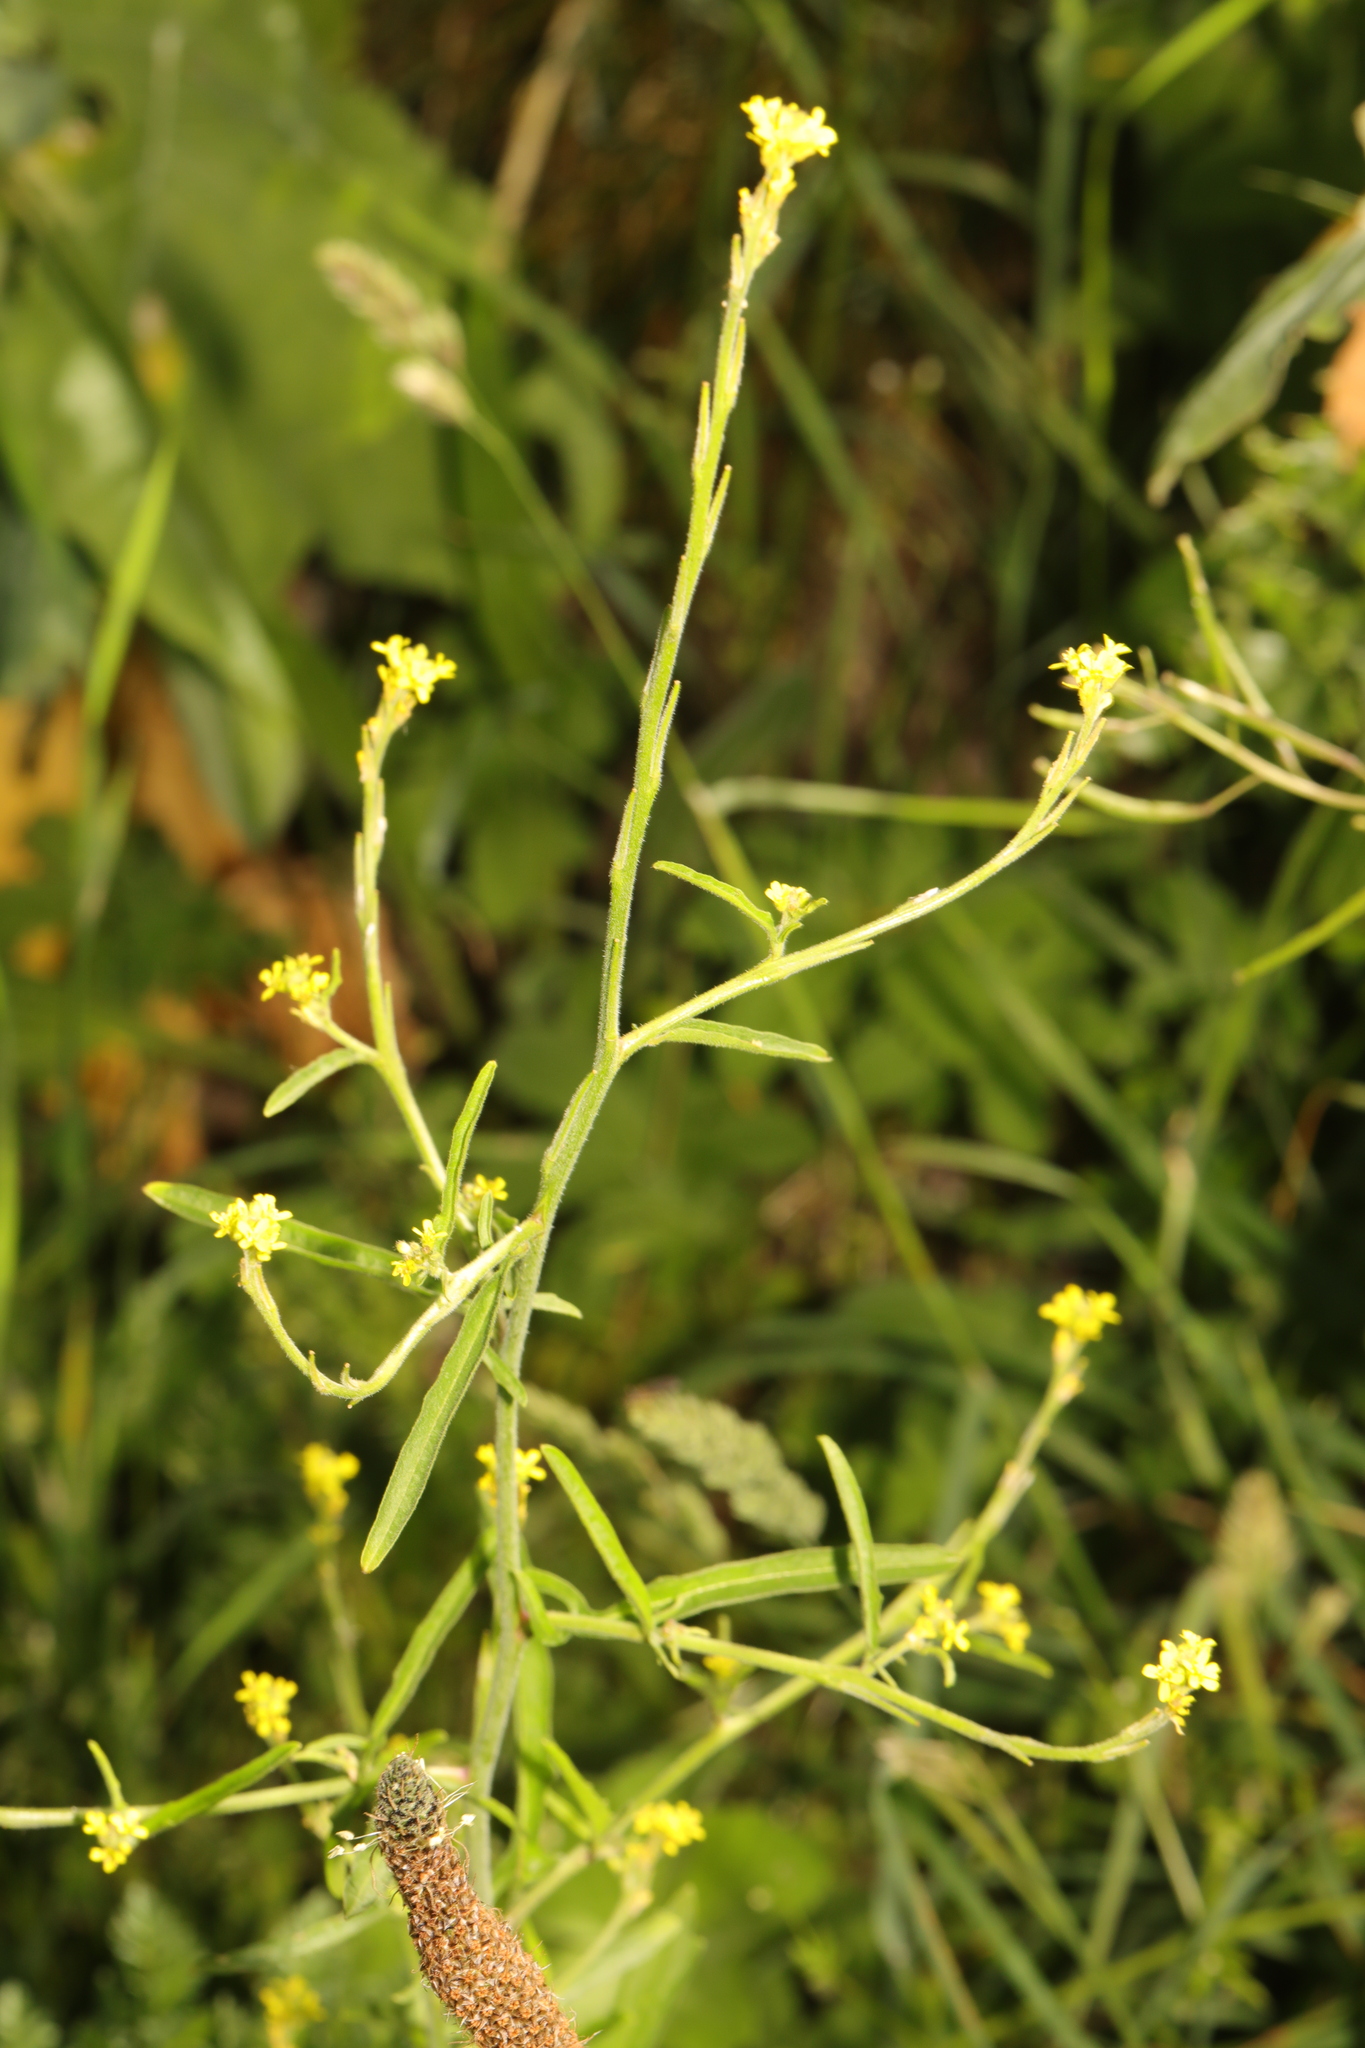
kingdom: Plantae
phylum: Tracheophyta
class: Magnoliopsida
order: Brassicales
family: Brassicaceae
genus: Sisymbrium
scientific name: Sisymbrium officinale
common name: Hedge mustard
